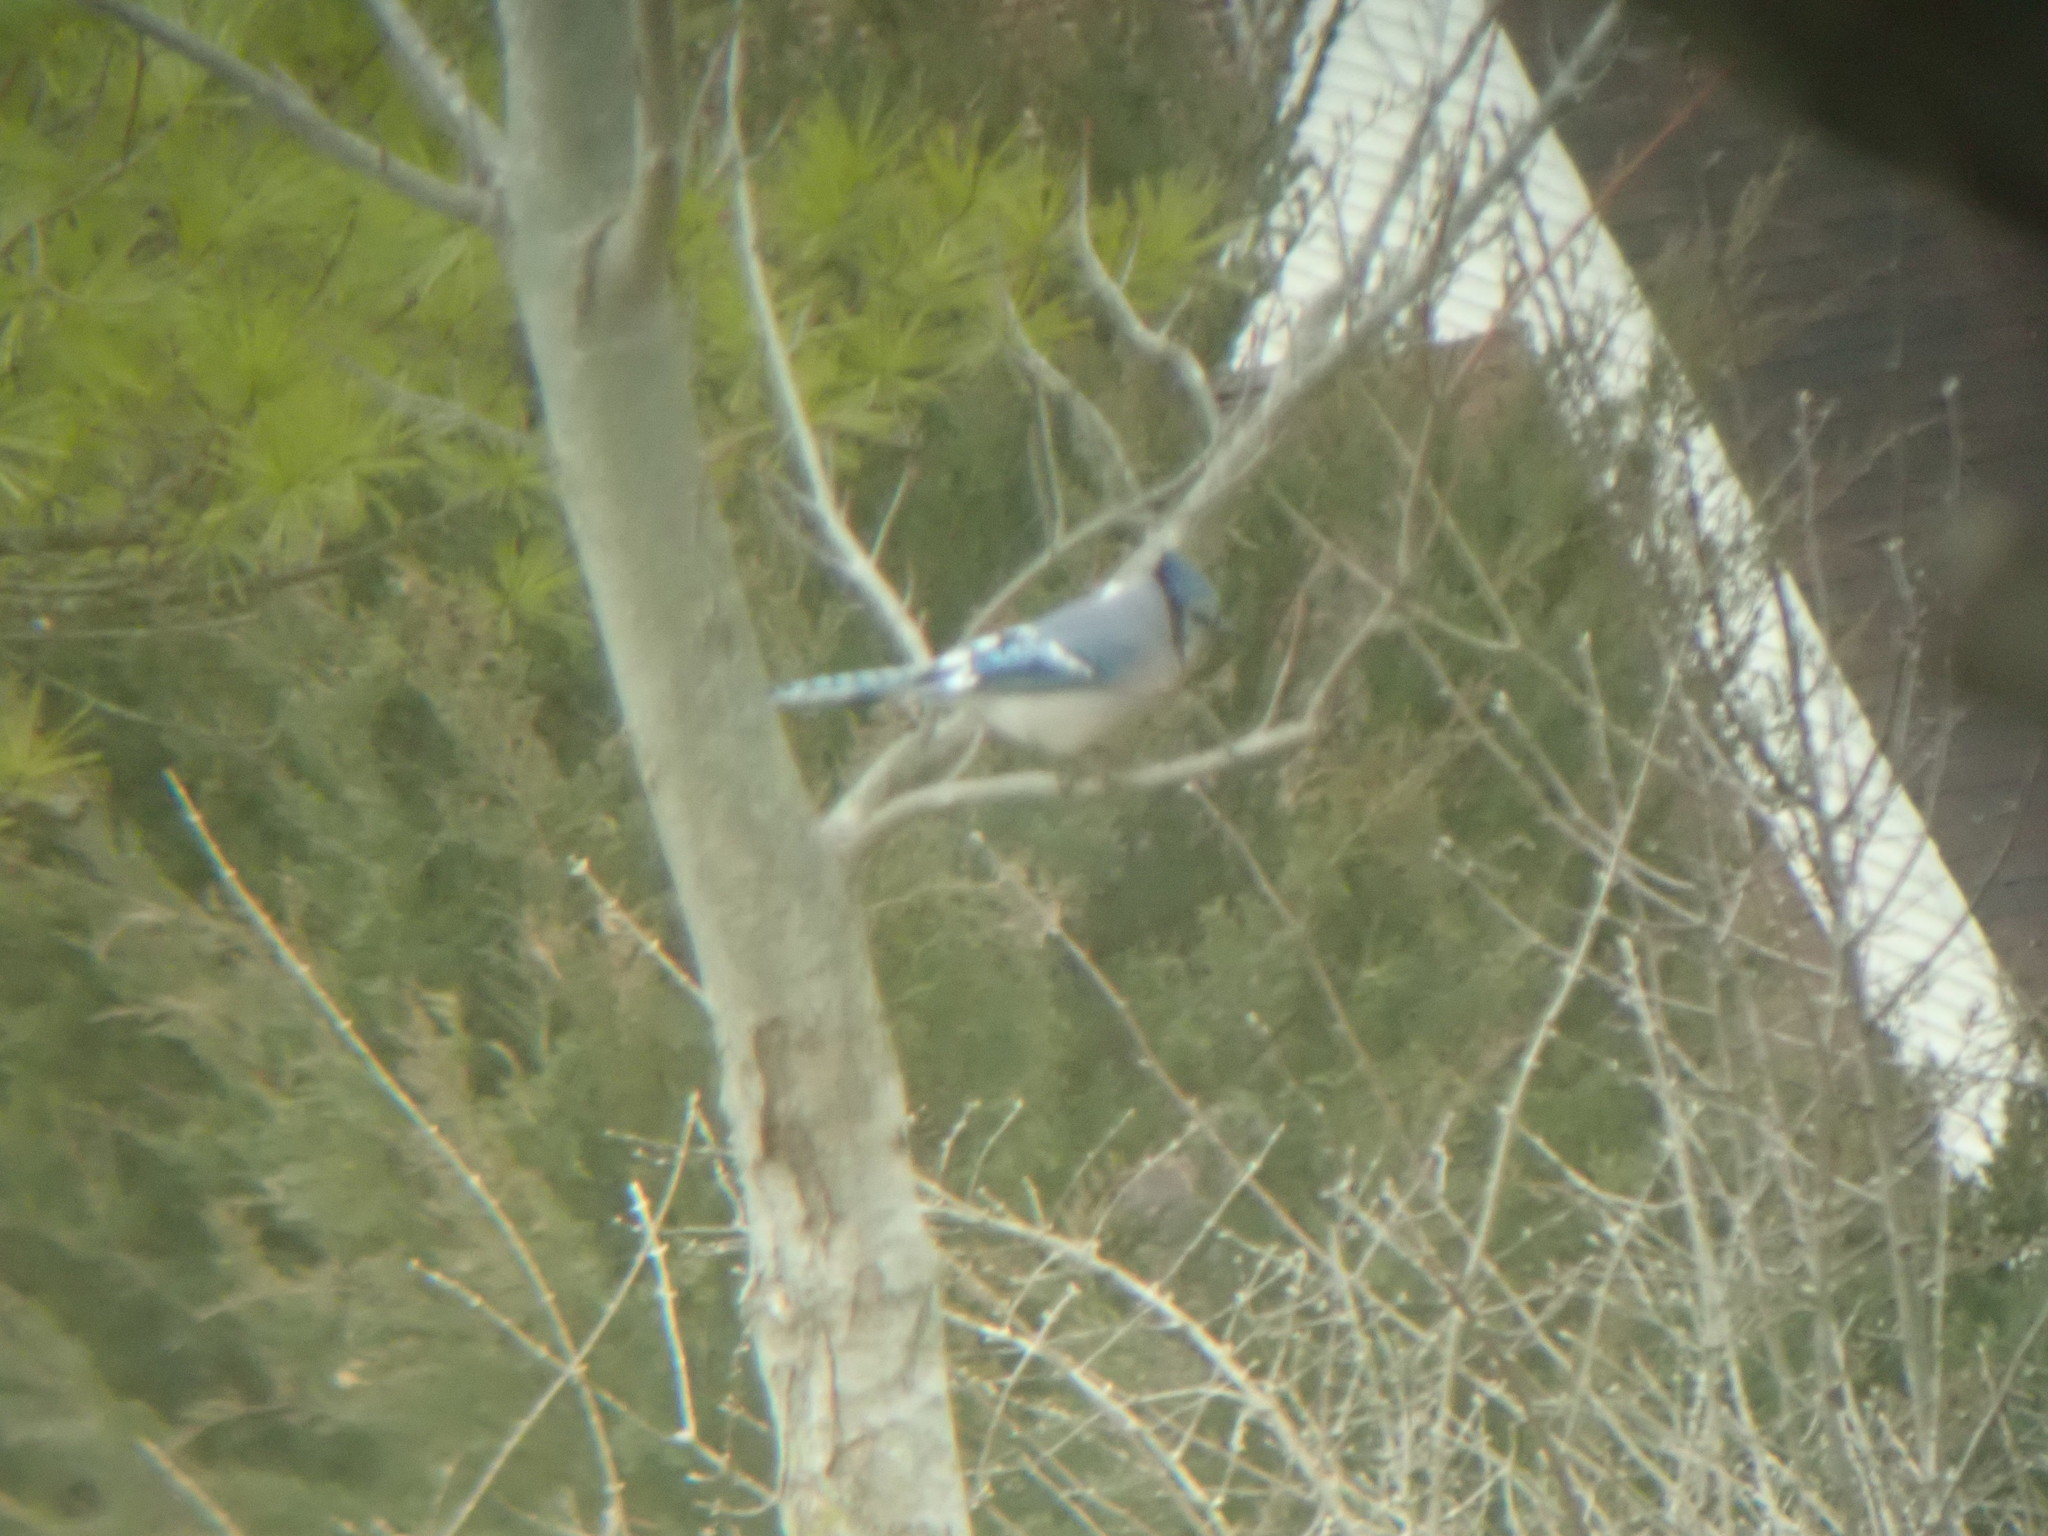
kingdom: Animalia
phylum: Chordata
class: Aves
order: Passeriformes
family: Corvidae
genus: Cyanocitta
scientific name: Cyanocitta cristata
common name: Blue jay
